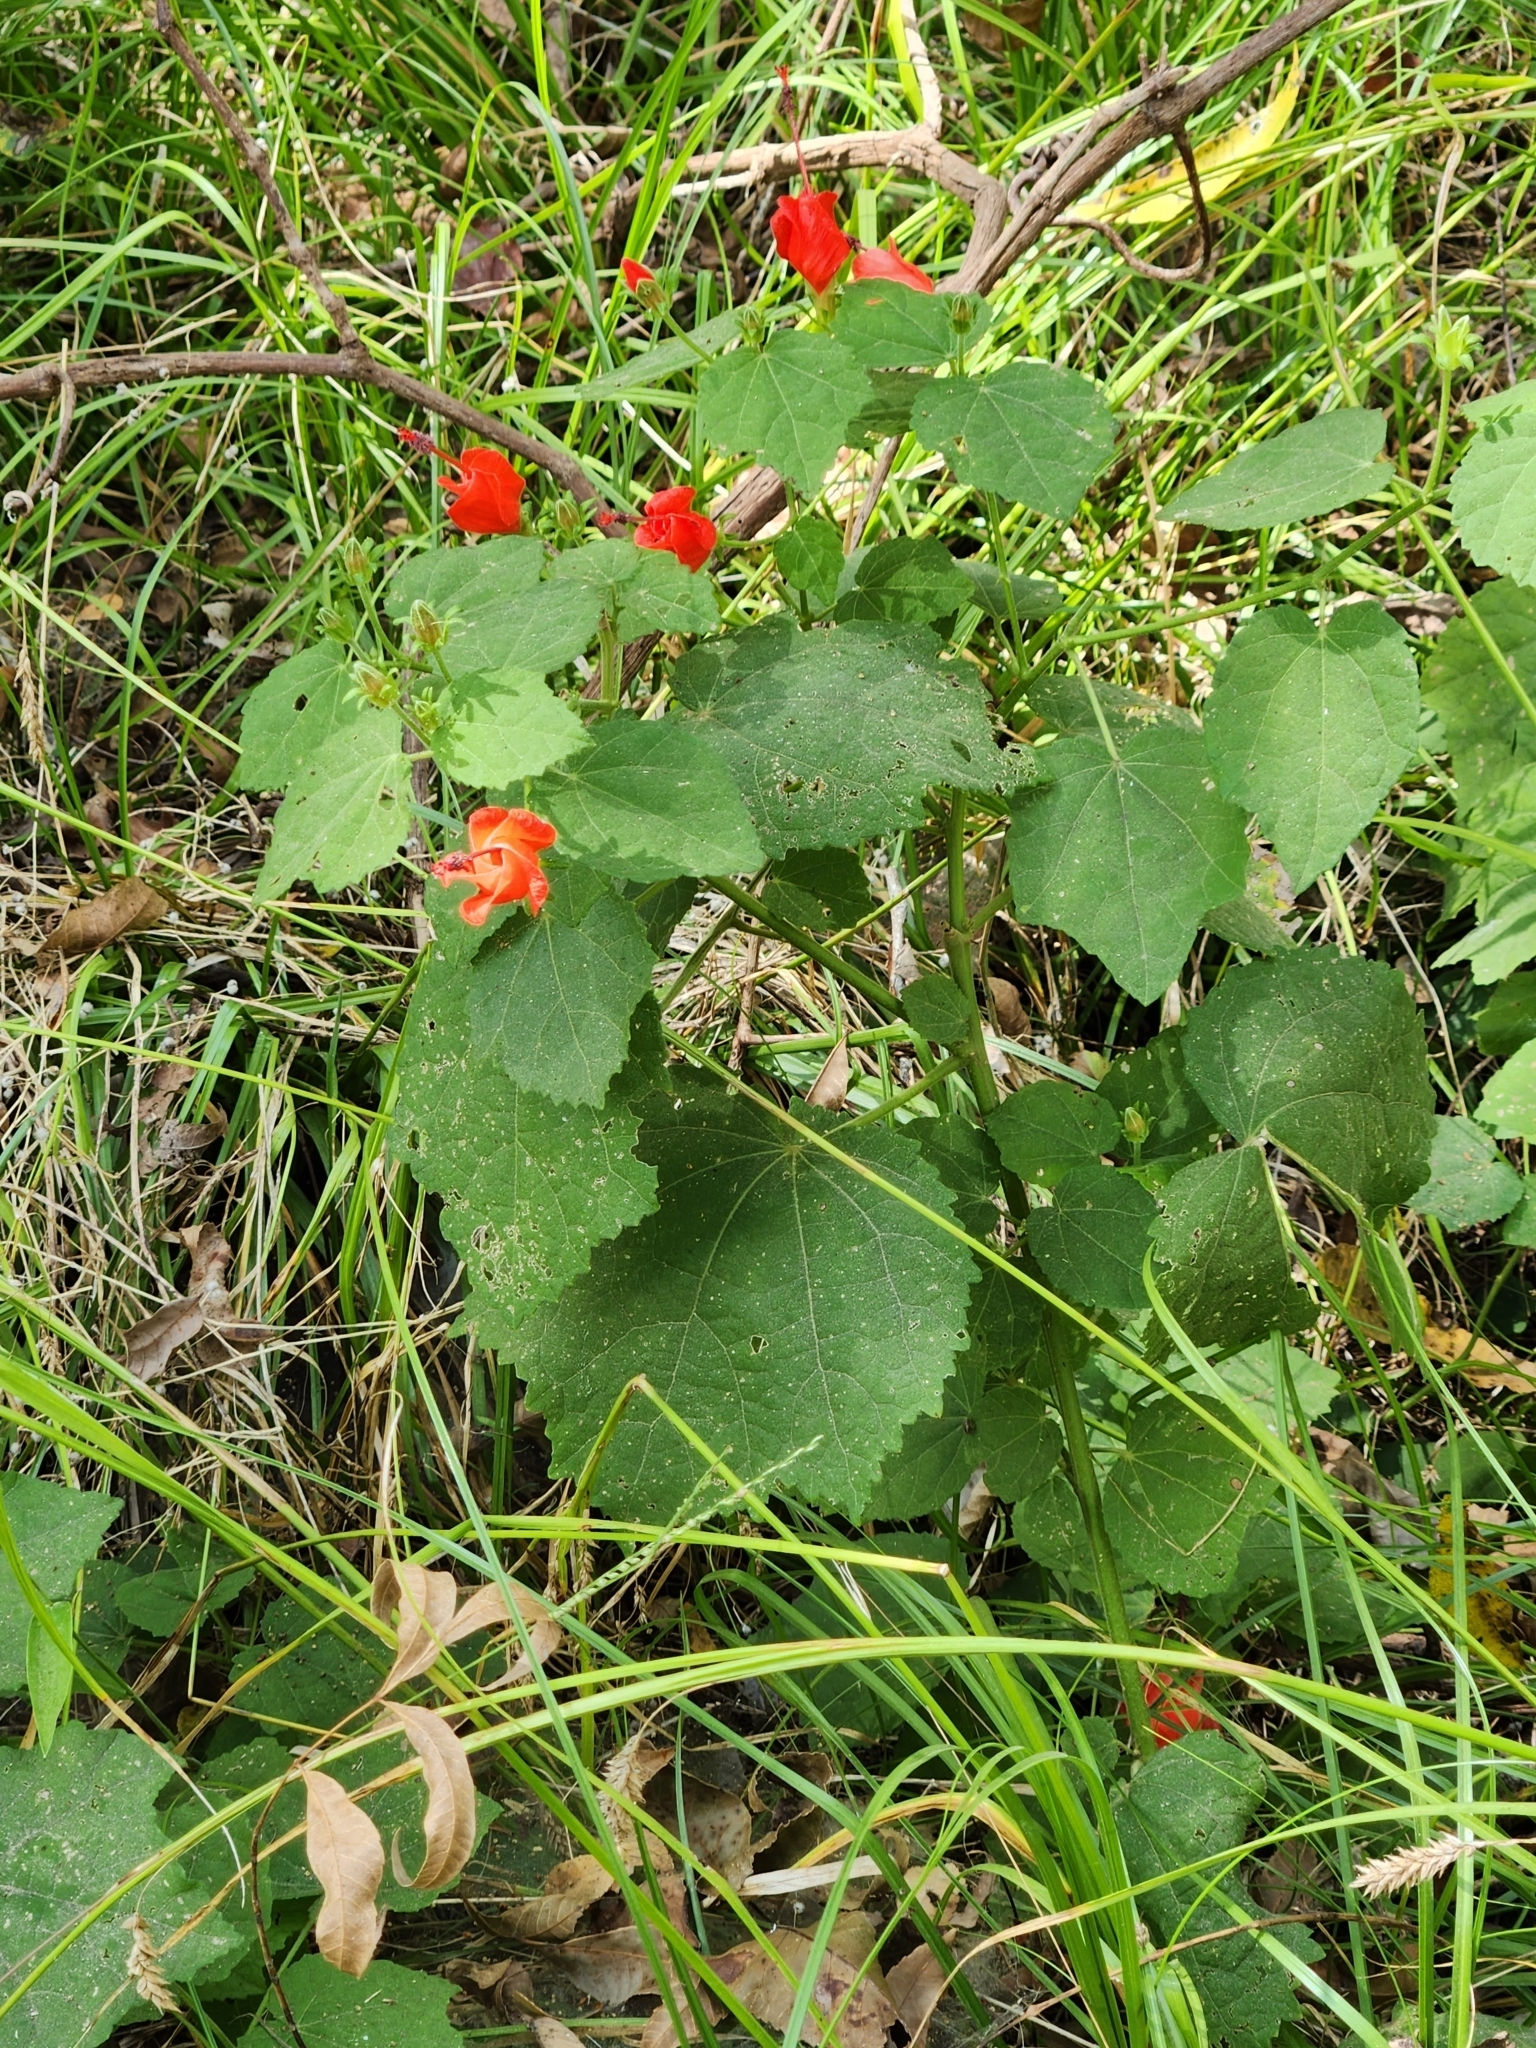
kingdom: Plantae
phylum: Tracheophyta
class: Magnoliopsida
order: Malvales
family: Malvaceae
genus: Malvaviscus
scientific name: Malvaviscus arboreus
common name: Wax mallow
